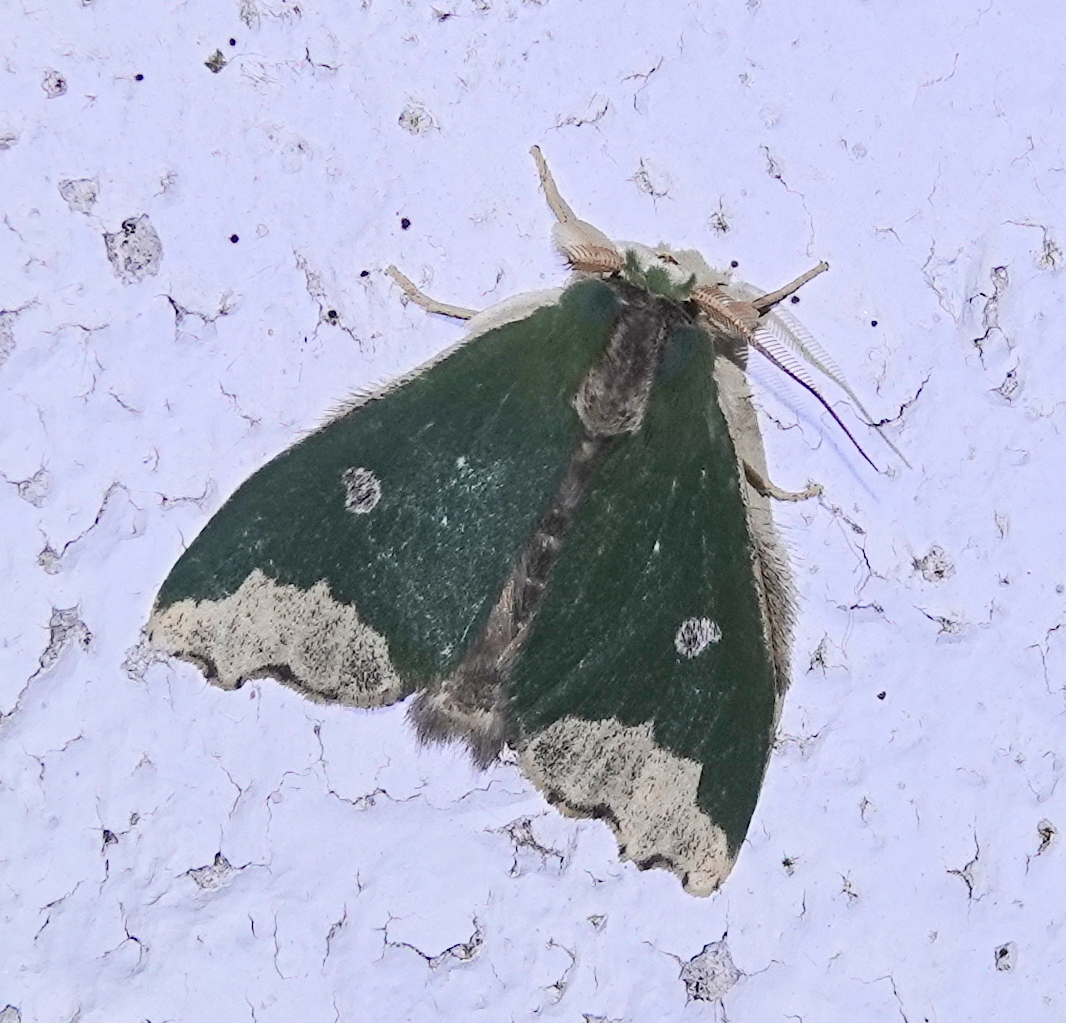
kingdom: Animalia
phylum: Arthropoda
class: Insecta
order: Lepidoptera
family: Notodontidae
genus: Rosema
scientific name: Rosema epigena
